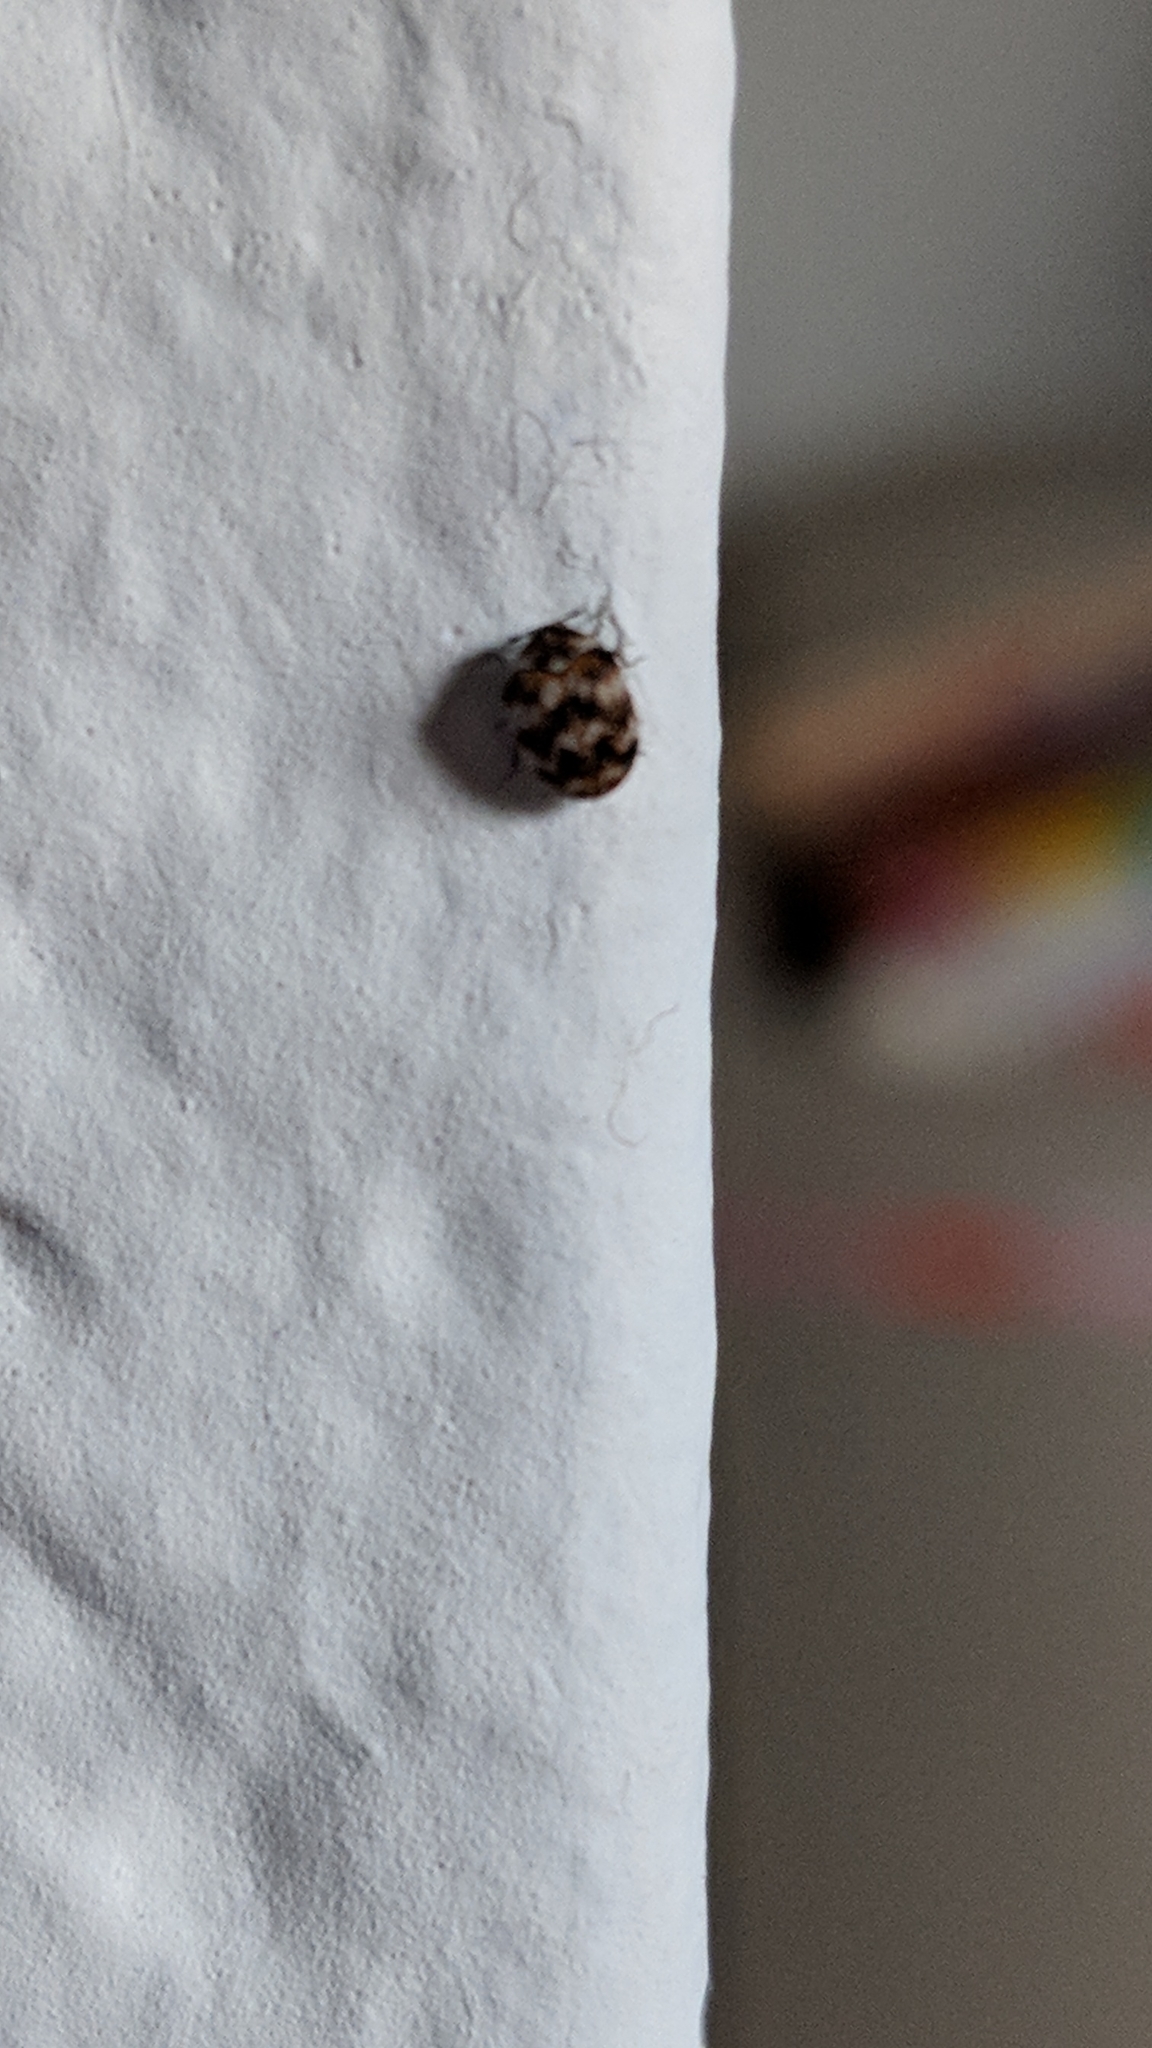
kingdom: Animalia
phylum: Arthropoda
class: Insecta
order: Coleoptera
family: Dermestidae
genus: Anthrenus
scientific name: Anthrenus verbasci
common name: Varied carpet beetle
